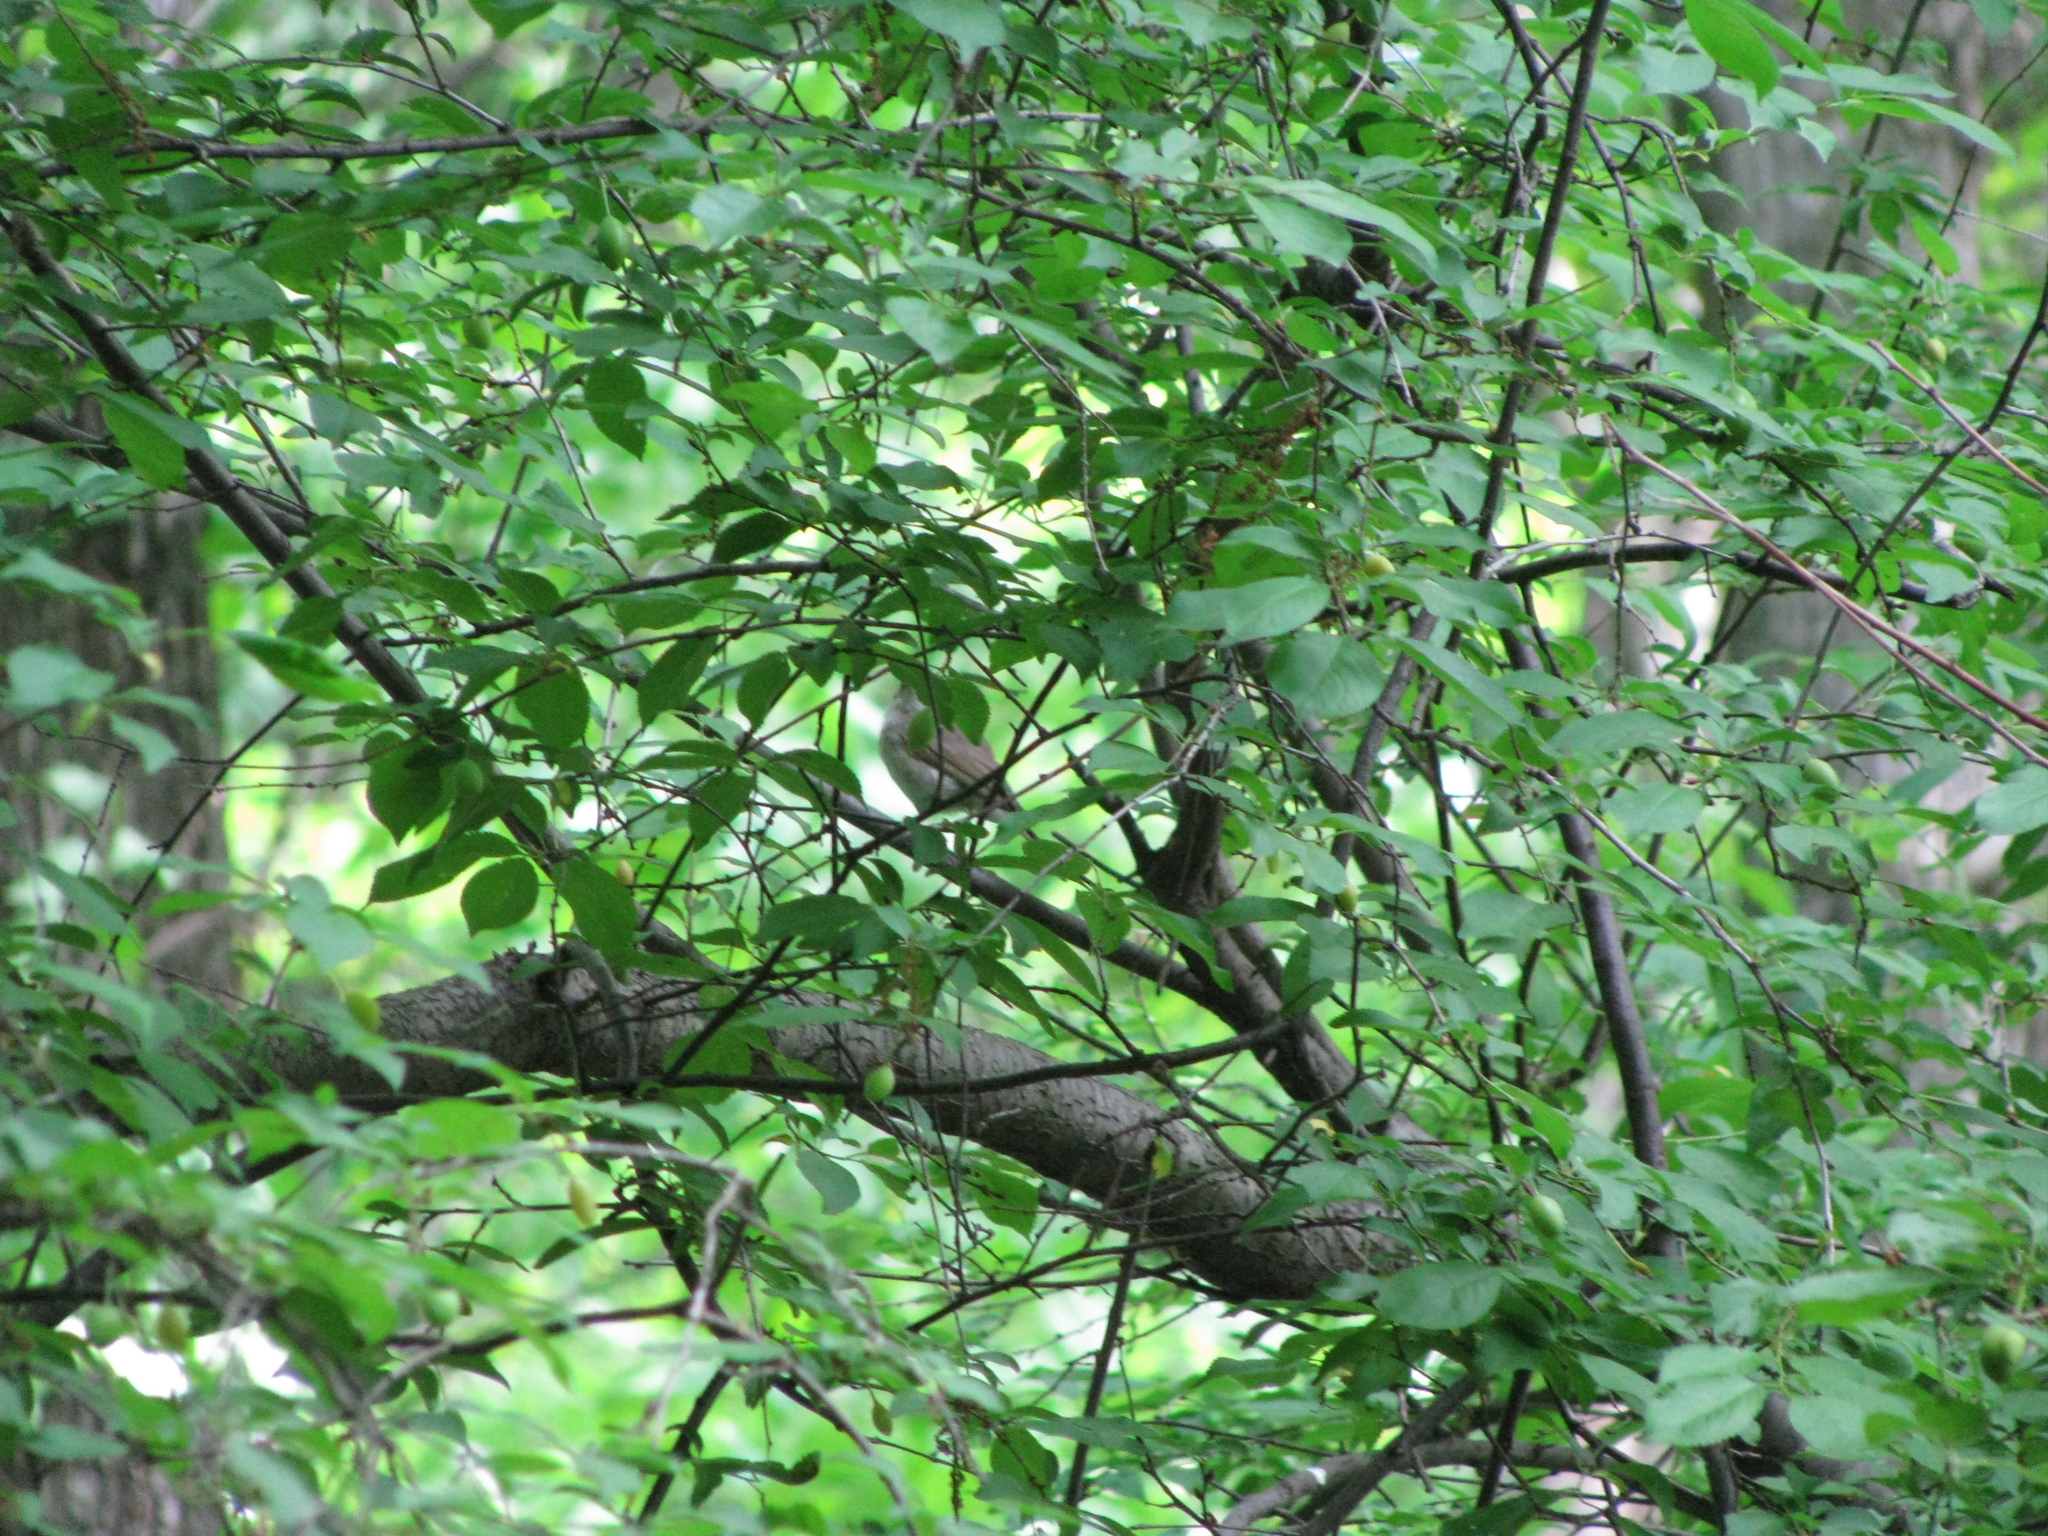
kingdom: Animalia
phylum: Chordata
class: Aves
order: Passeriformes
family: Phylloscopidae
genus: Phylloscopus
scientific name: Phylloscopus collybita
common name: Common chiffchaff
